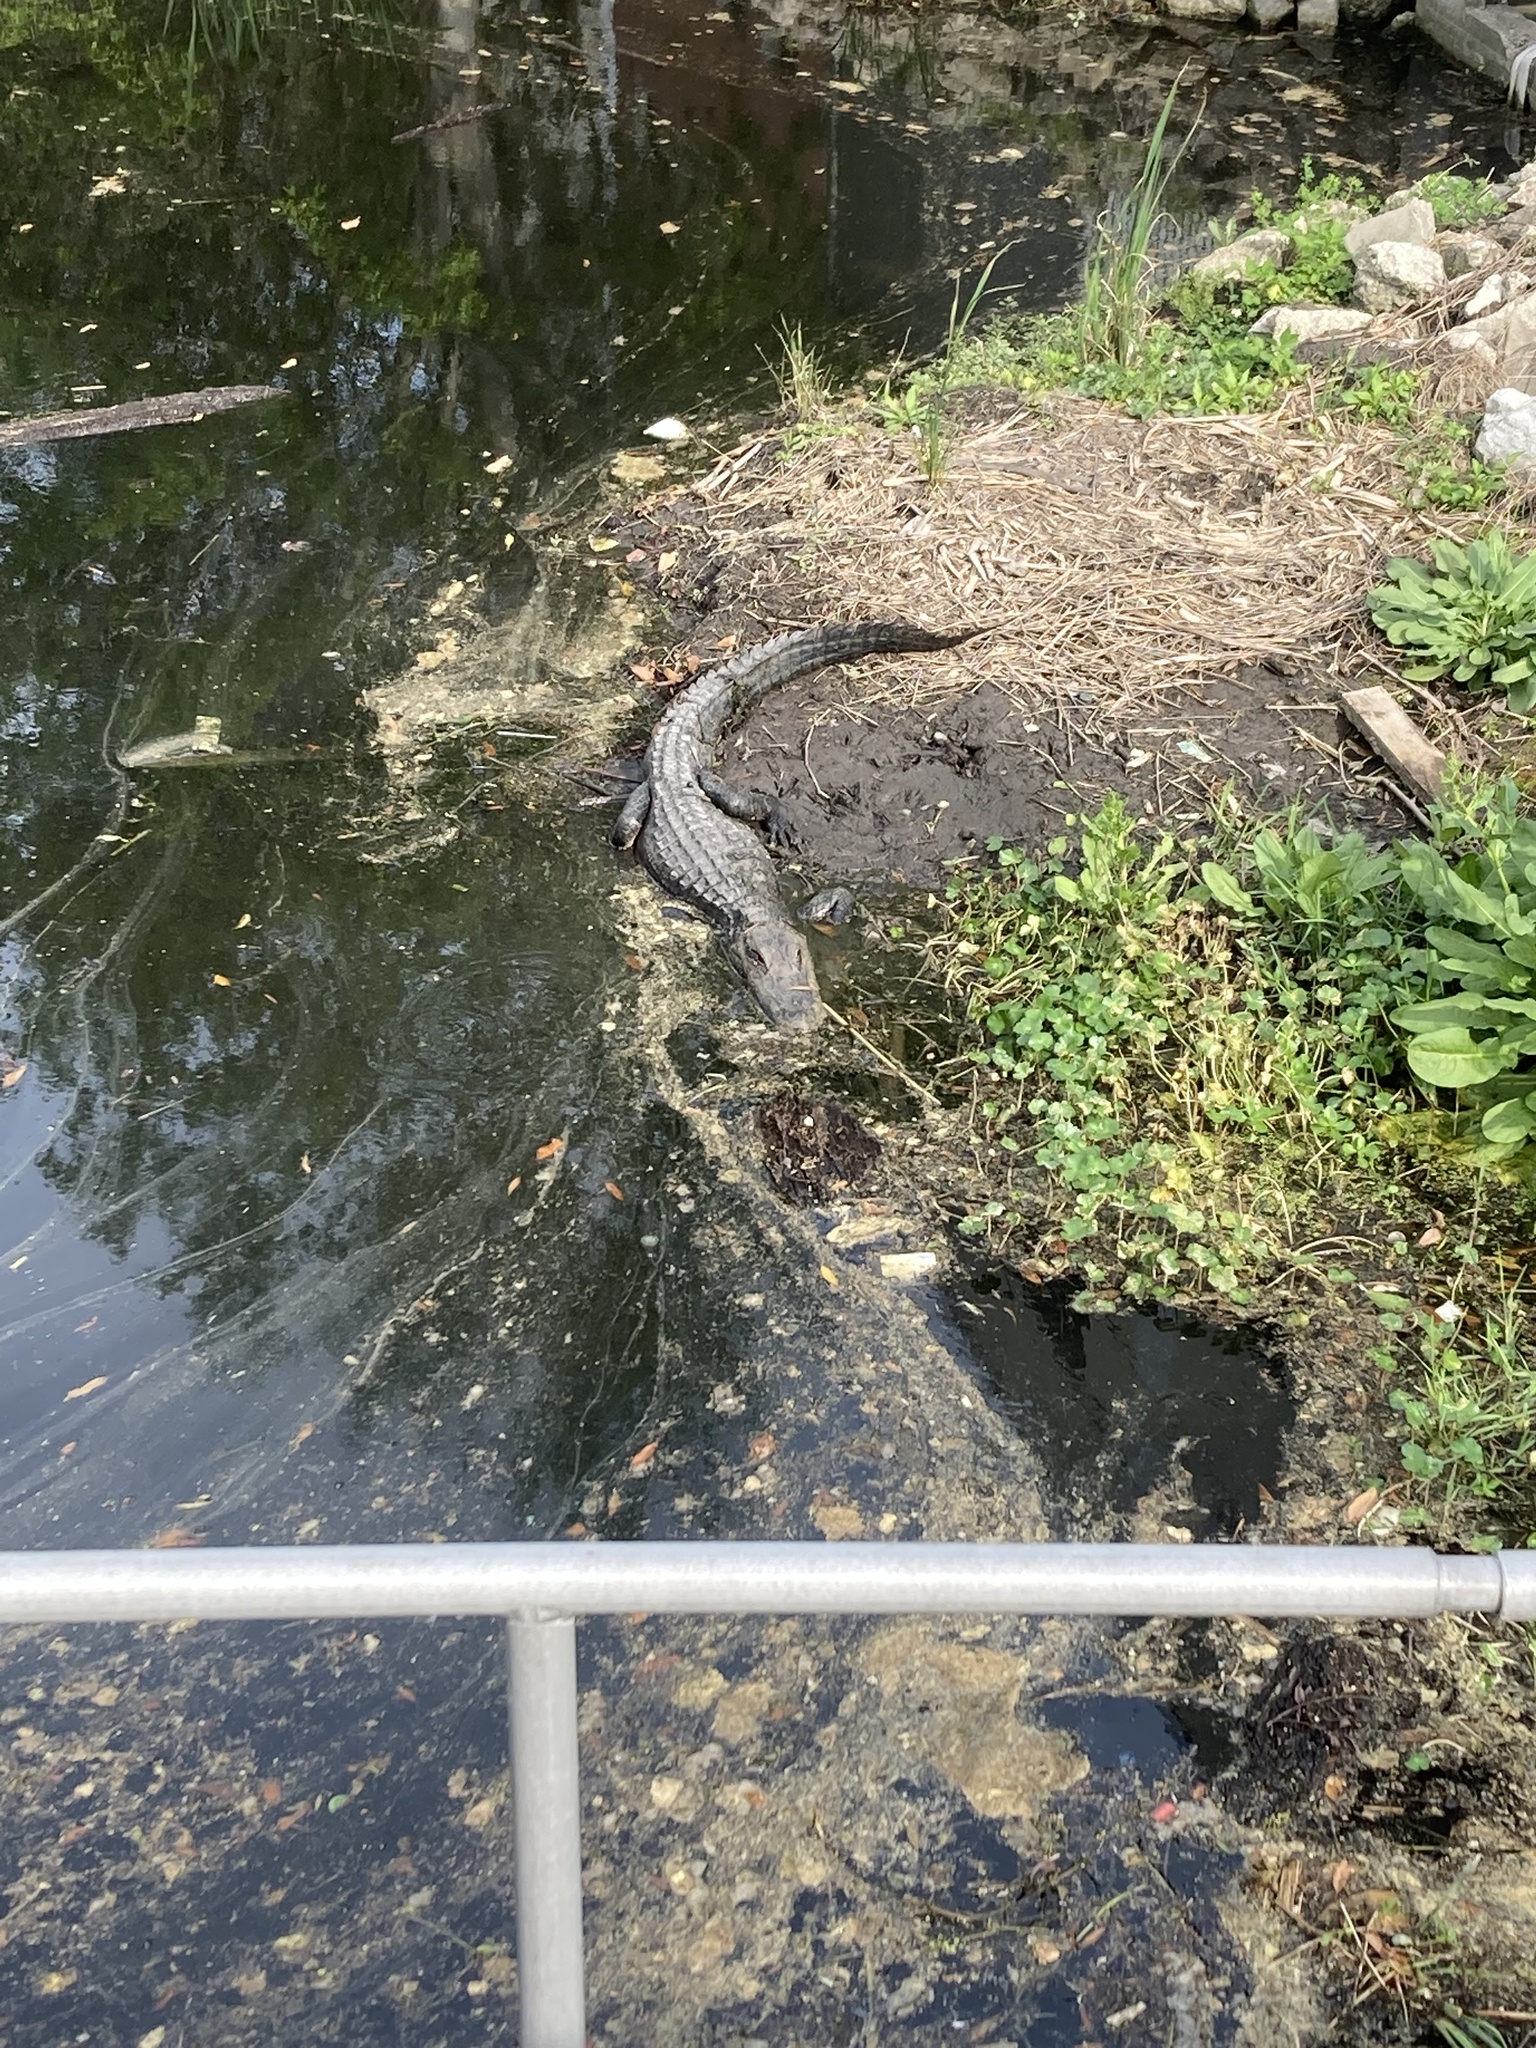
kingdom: Animalia
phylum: Chordata
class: Crocodylia
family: Alligatoridae
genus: Alligator
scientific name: Alligator mississippiensis
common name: American alligator
